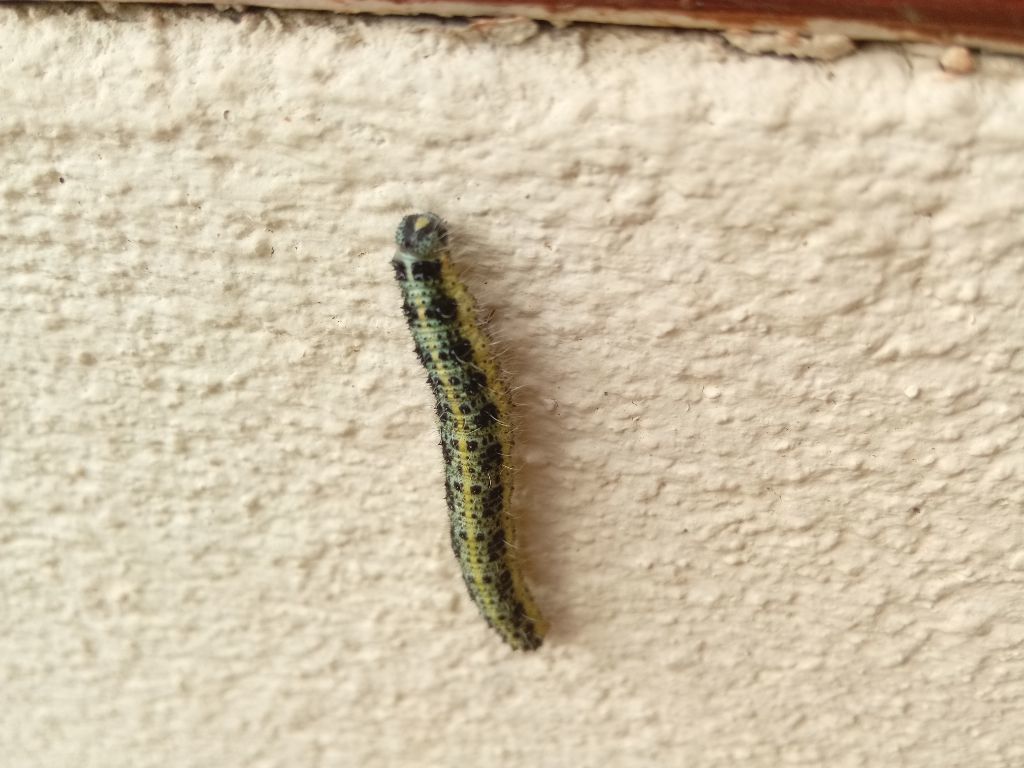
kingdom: Animalia
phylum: Arthropoda
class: Insecta
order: Lepidoptera
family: Pieridae
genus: Pieris
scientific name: Pieris brassicae
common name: Large white
